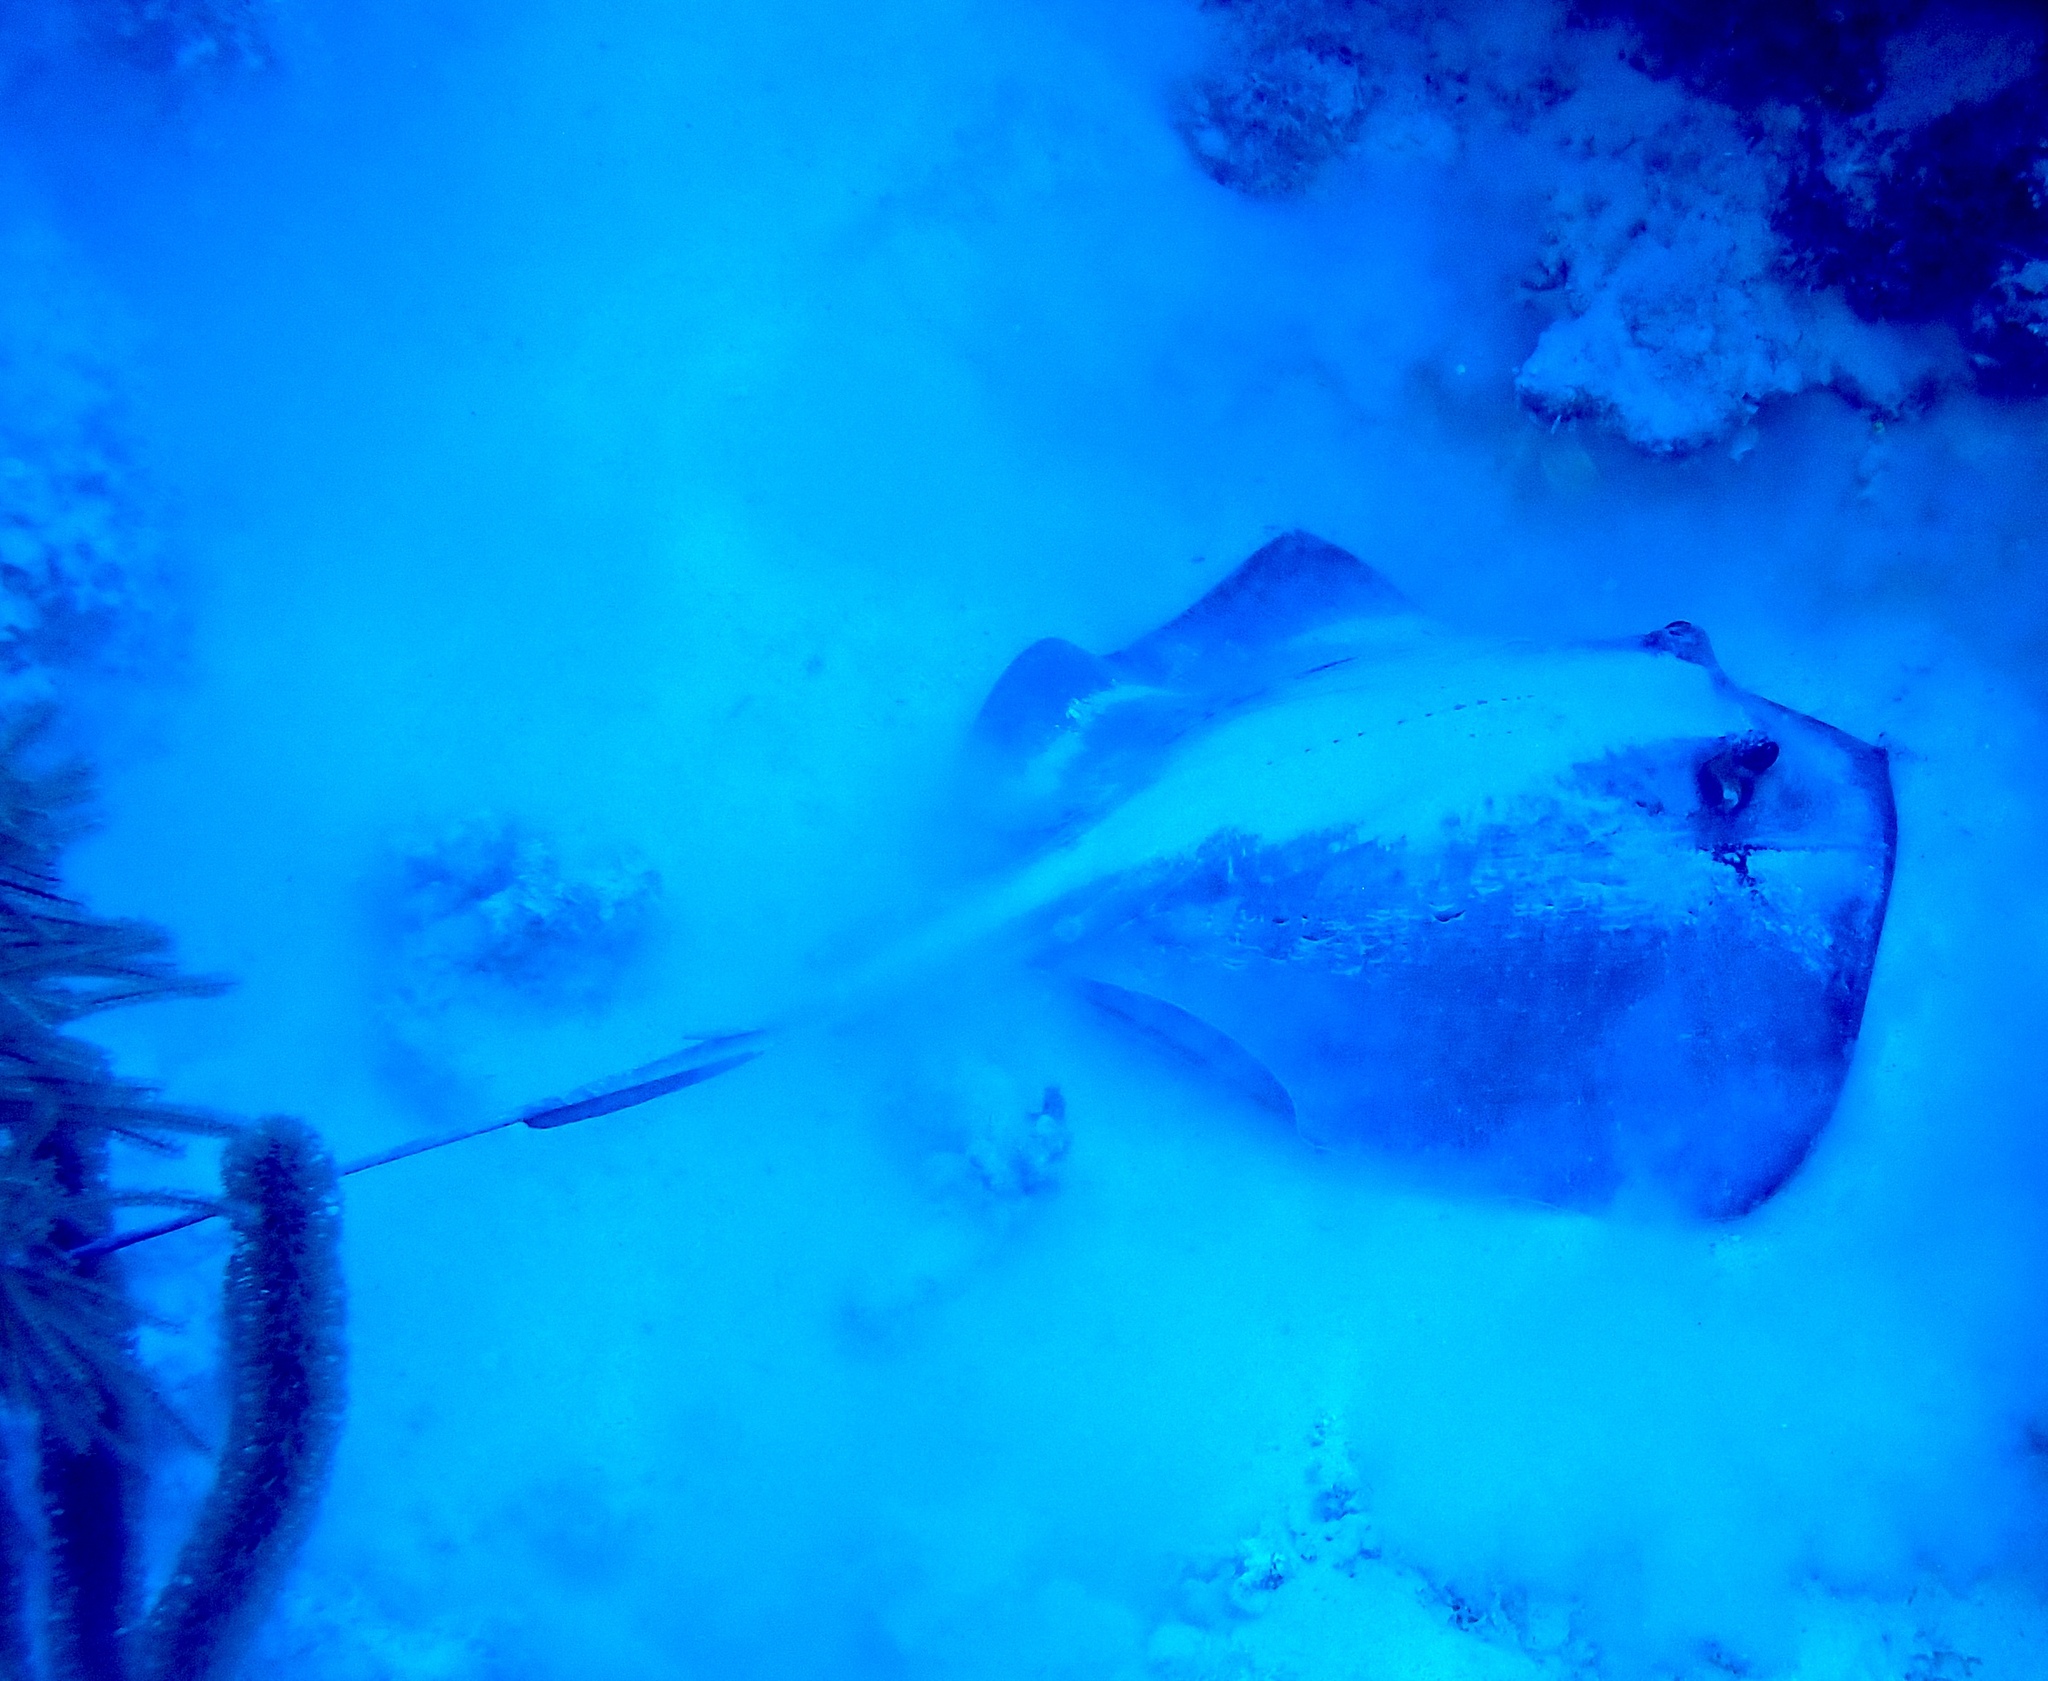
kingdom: Animalia
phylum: Chordata
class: Elasmobranchii
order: Myliobatiformes
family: Dasyatidae
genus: Hypanus
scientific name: Hypanus americanus
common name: Southern stingray
